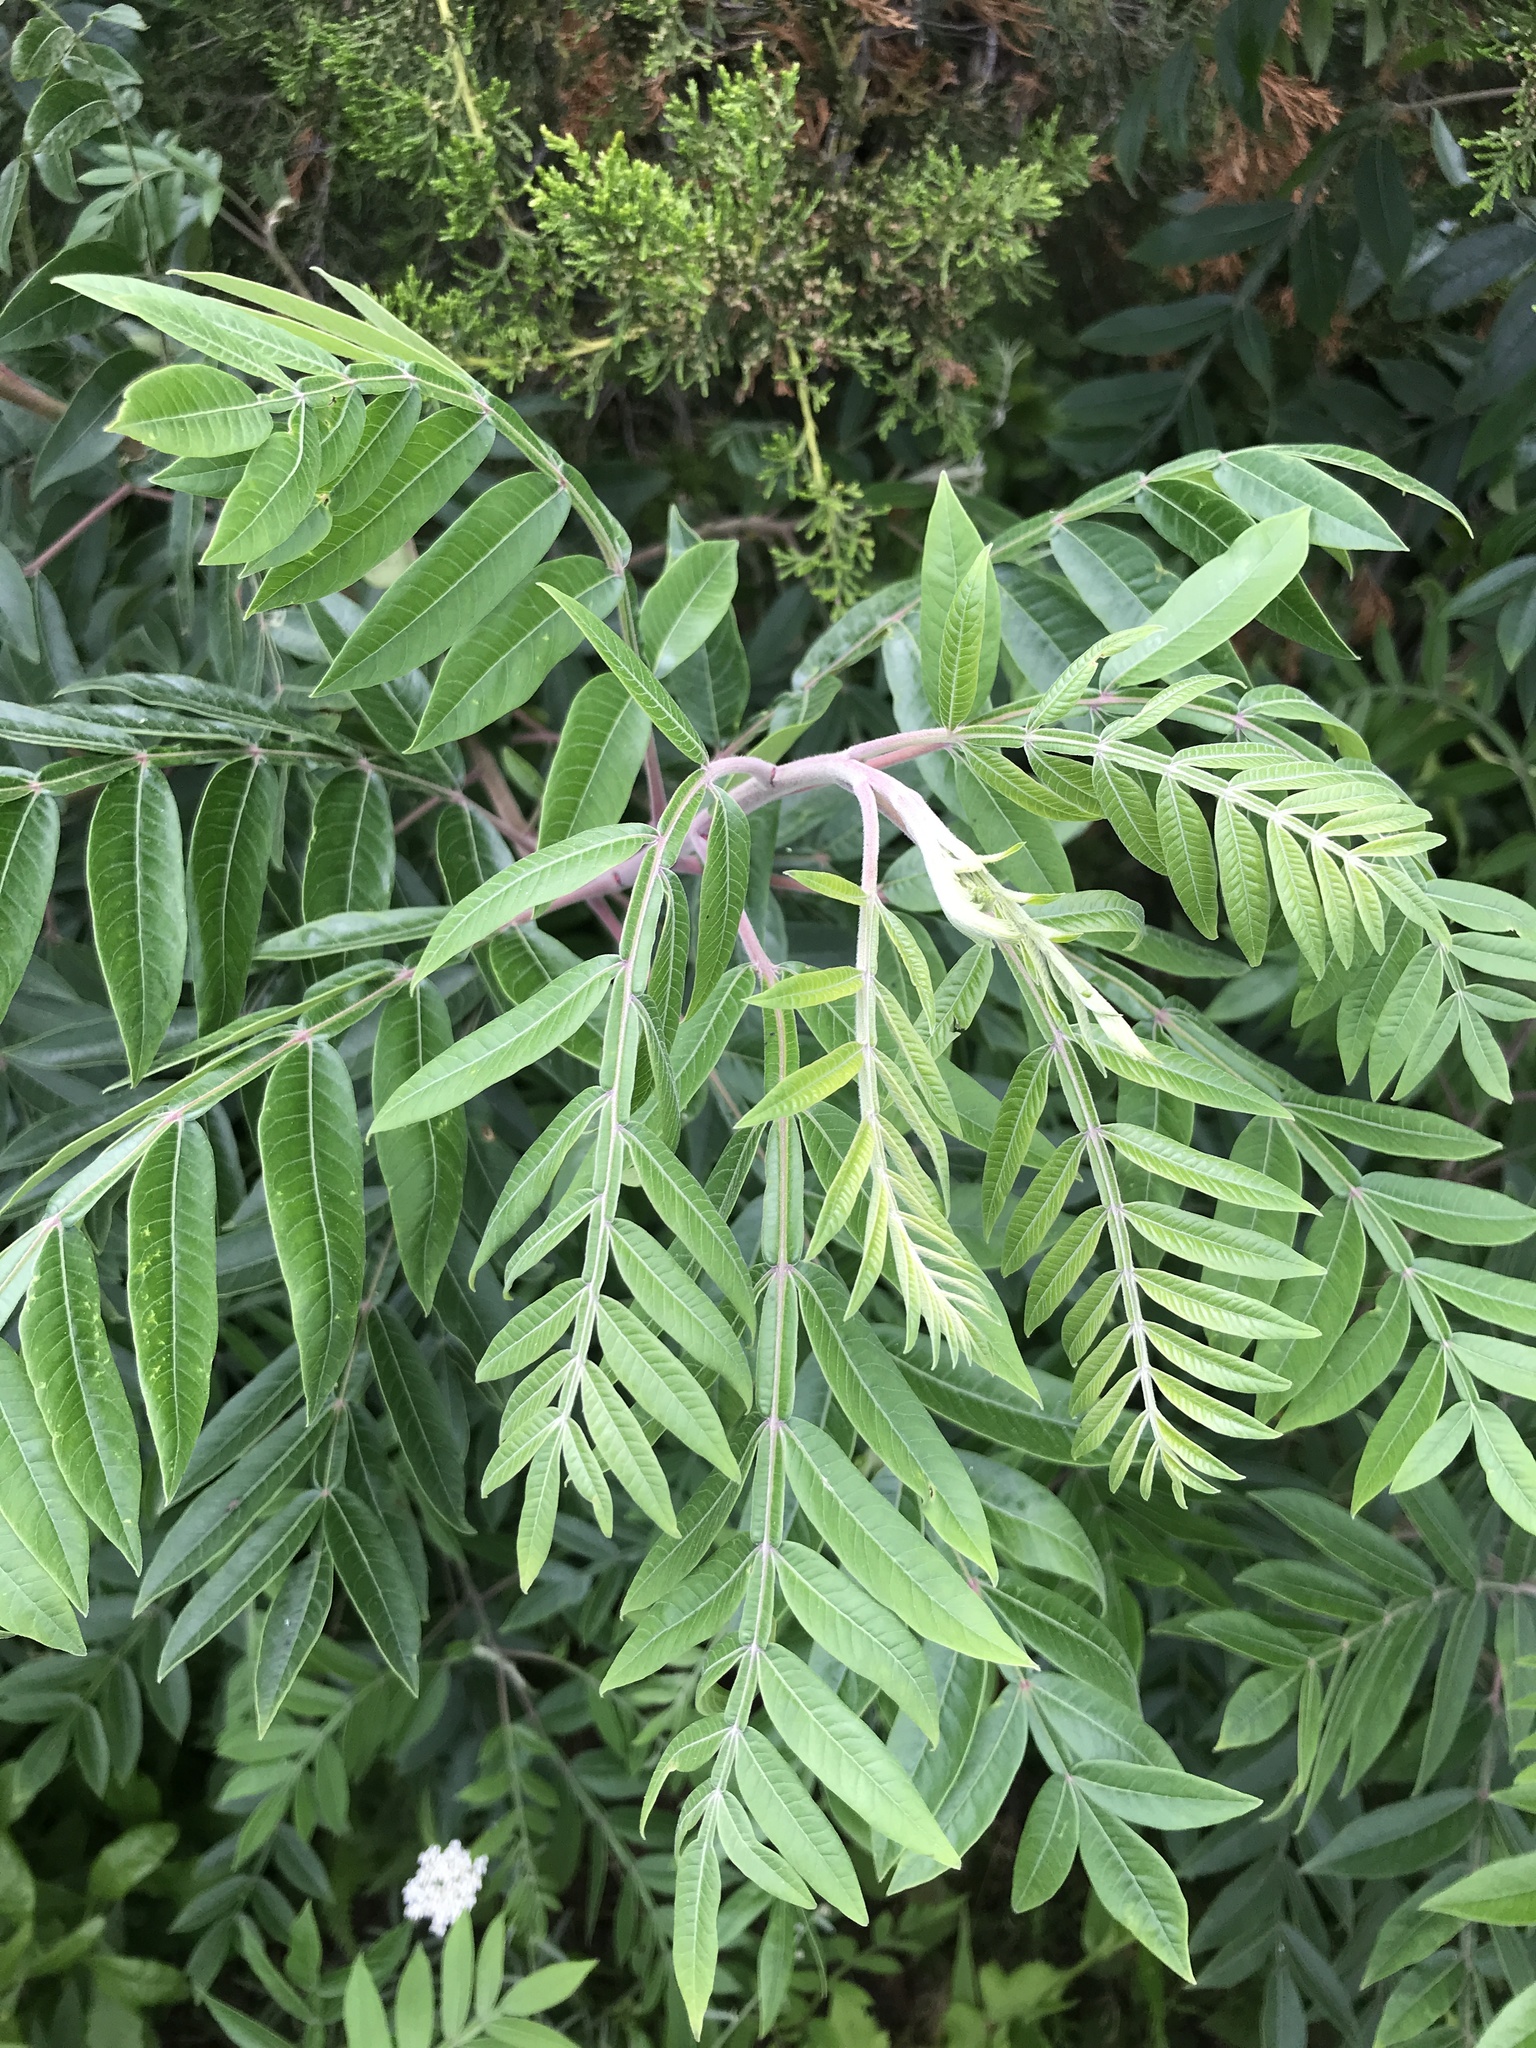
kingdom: Plantae
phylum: Tracheophyta
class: Magnoliopsida
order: Sapindales
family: Anacardiaceae
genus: Rhus
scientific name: Rhus copallina
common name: Shining sumac
